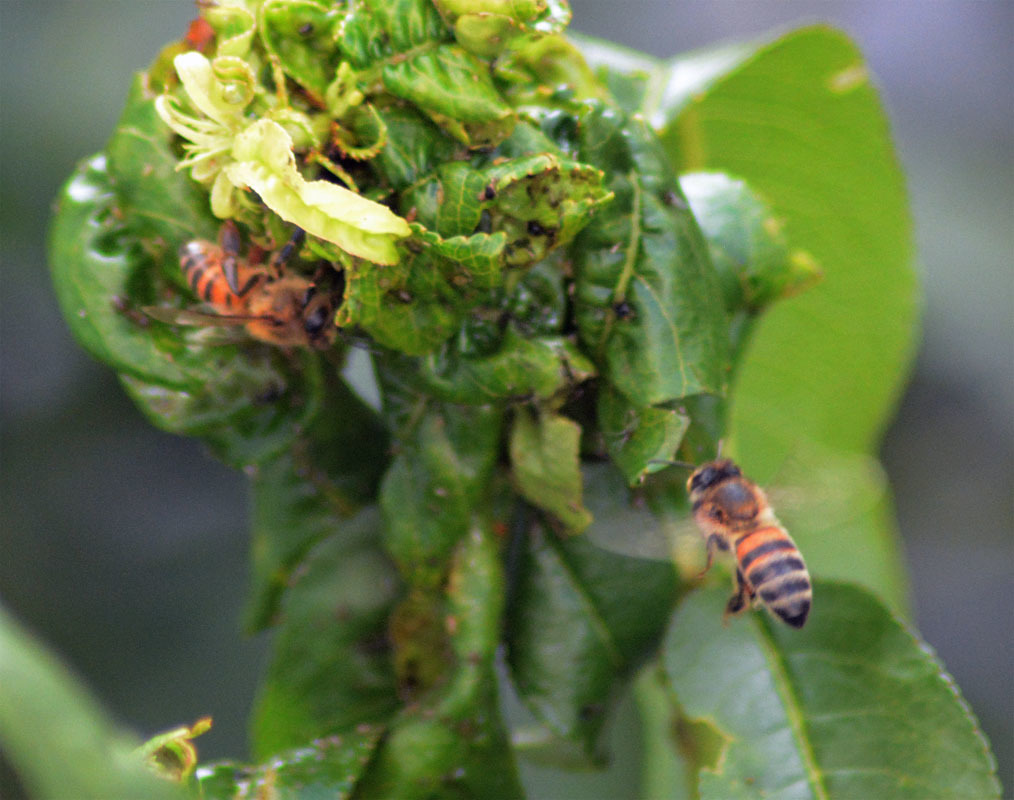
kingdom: Animalia
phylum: Arthropoda
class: Insecta
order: Hymenoptera
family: Apidae
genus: Apis
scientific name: Apis mellifera
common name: Honey bee
